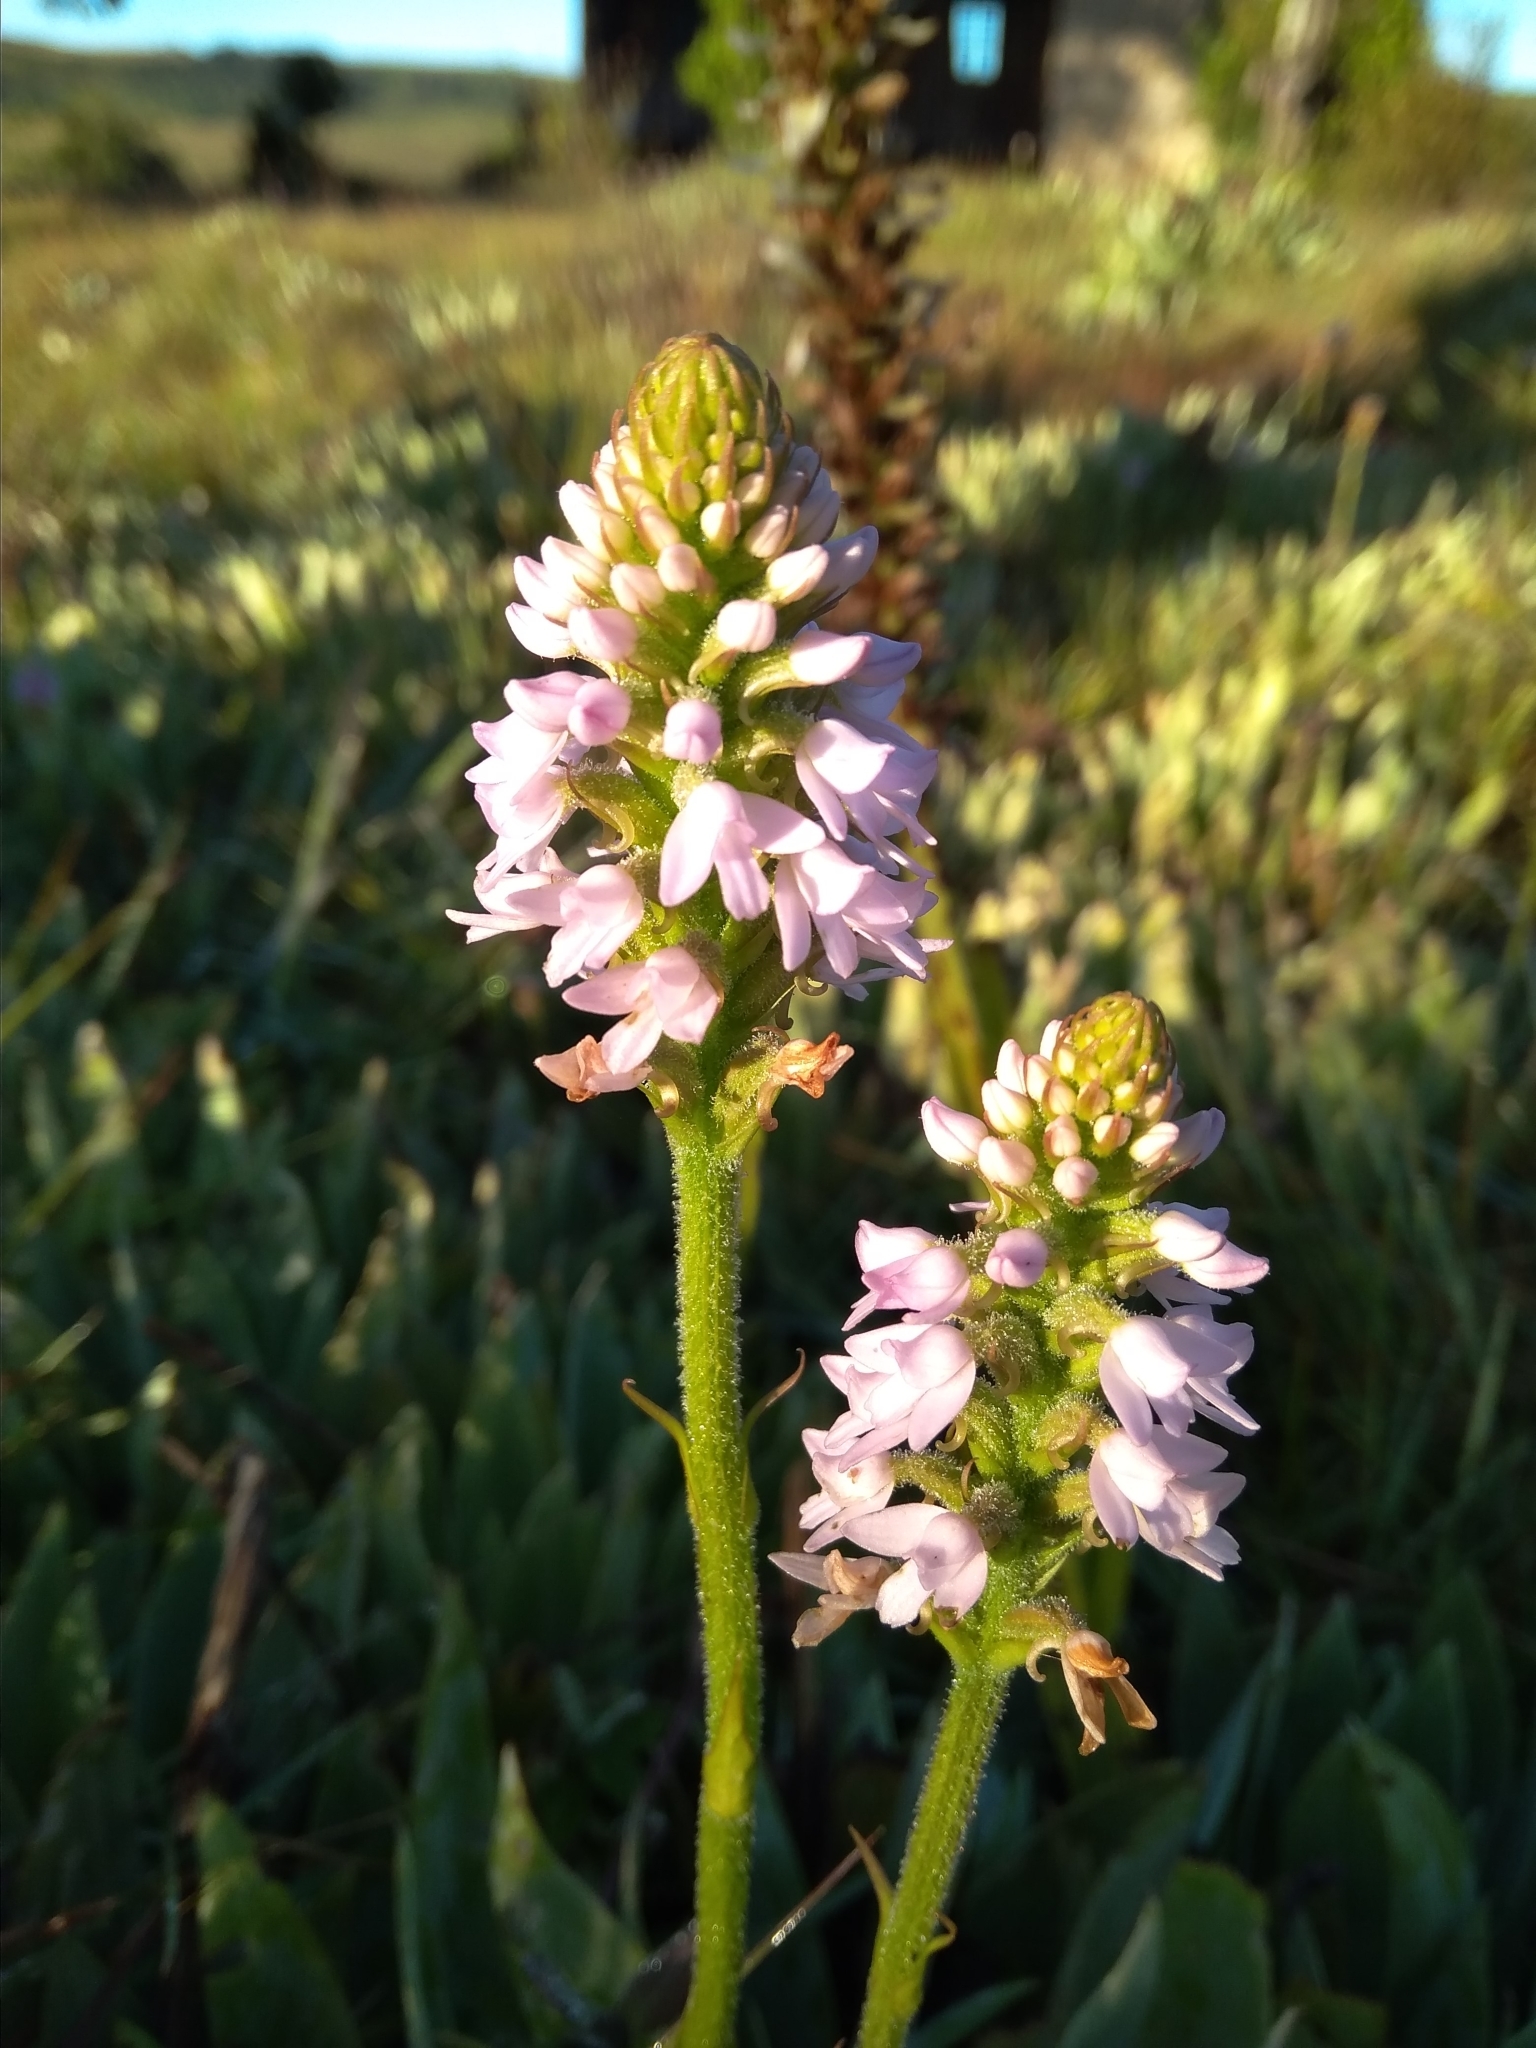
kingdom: Plantae
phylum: Tracheophyta
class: Liliopsida
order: Asparagales
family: Orchidaceae
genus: Cynorkis
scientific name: Cynorkis buchananii
